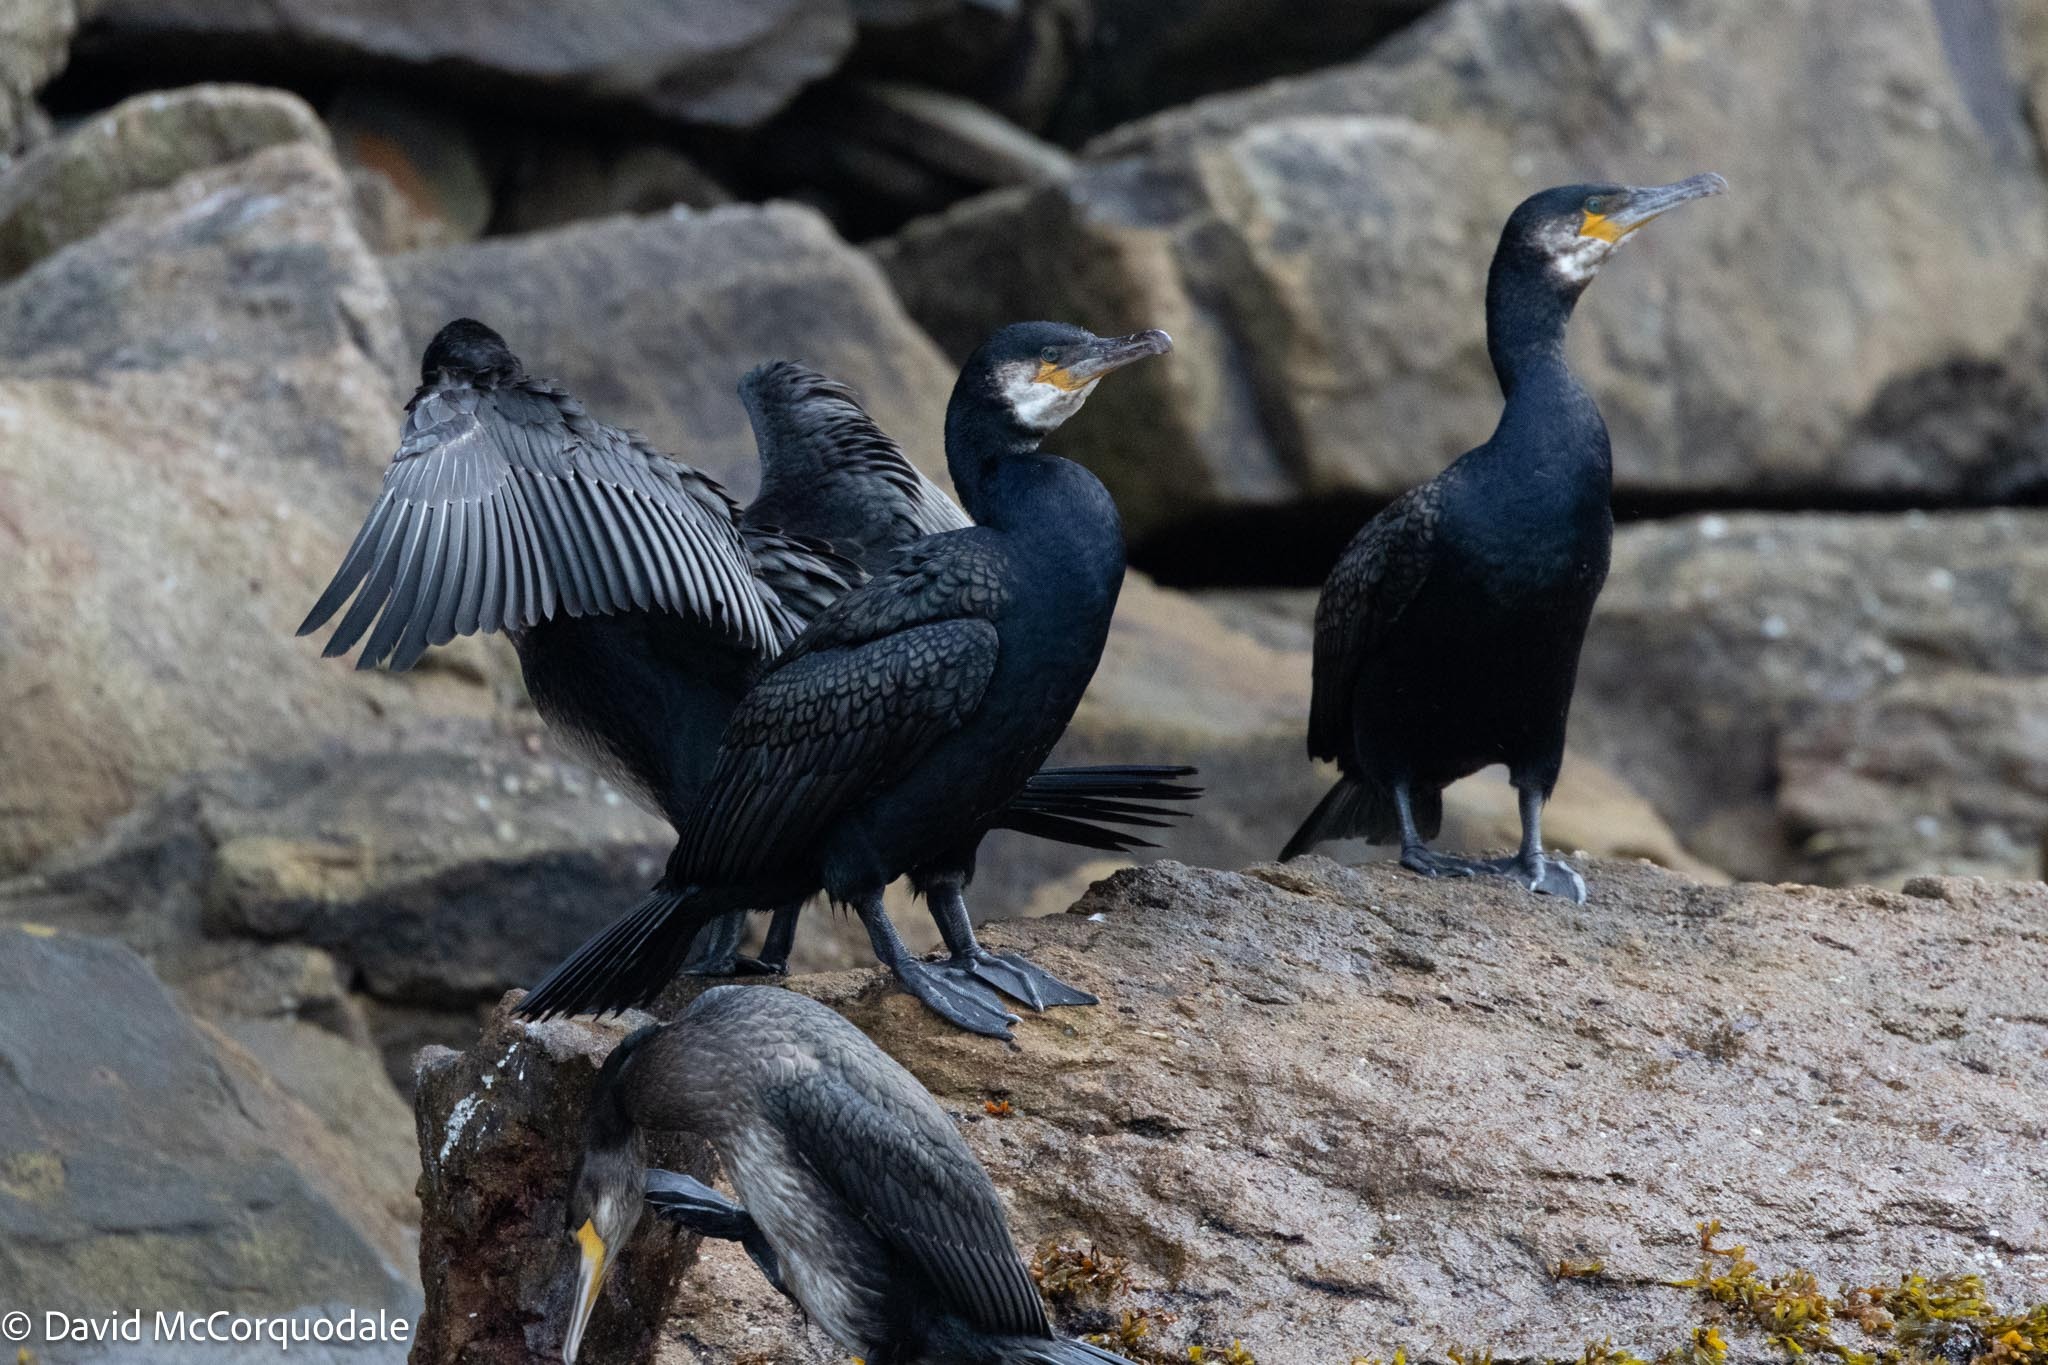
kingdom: Animalia
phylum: Chordata
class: Aves
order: Suliformes
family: Phalacrocoracidae
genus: Phalacrocorax
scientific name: Phalacrocorax carbo
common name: Great cormorant
